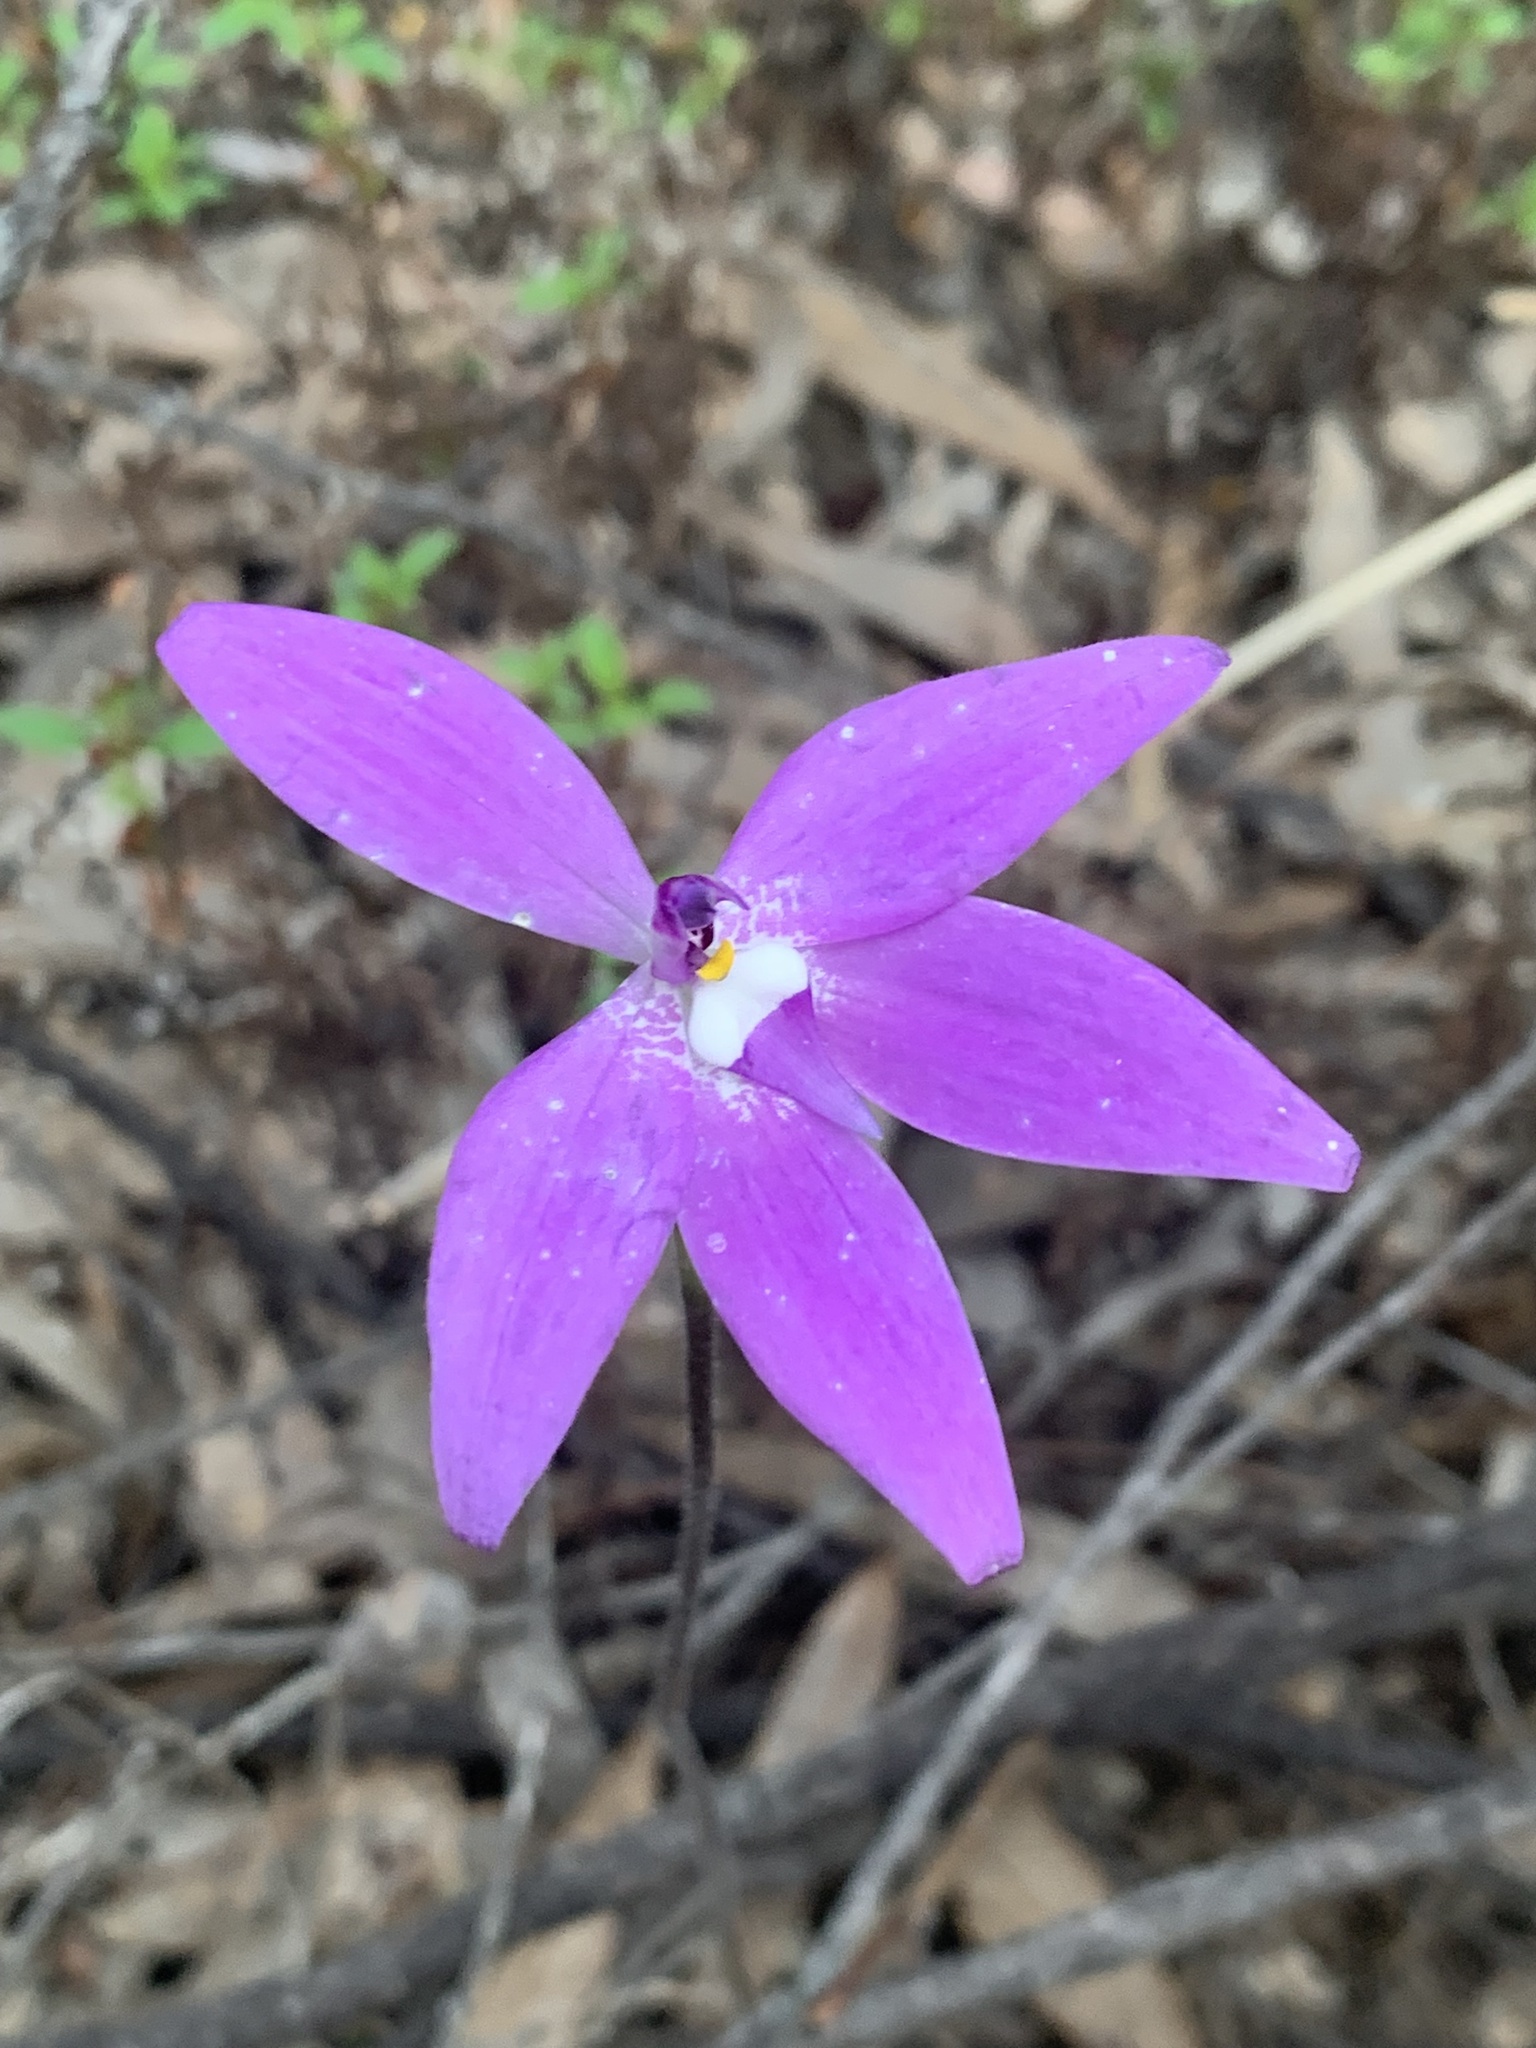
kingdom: Plantae
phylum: Tracheophyta
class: Liliopsida
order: Asparagales
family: Orchidaceae
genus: Caladenia
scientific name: Caladenia major
